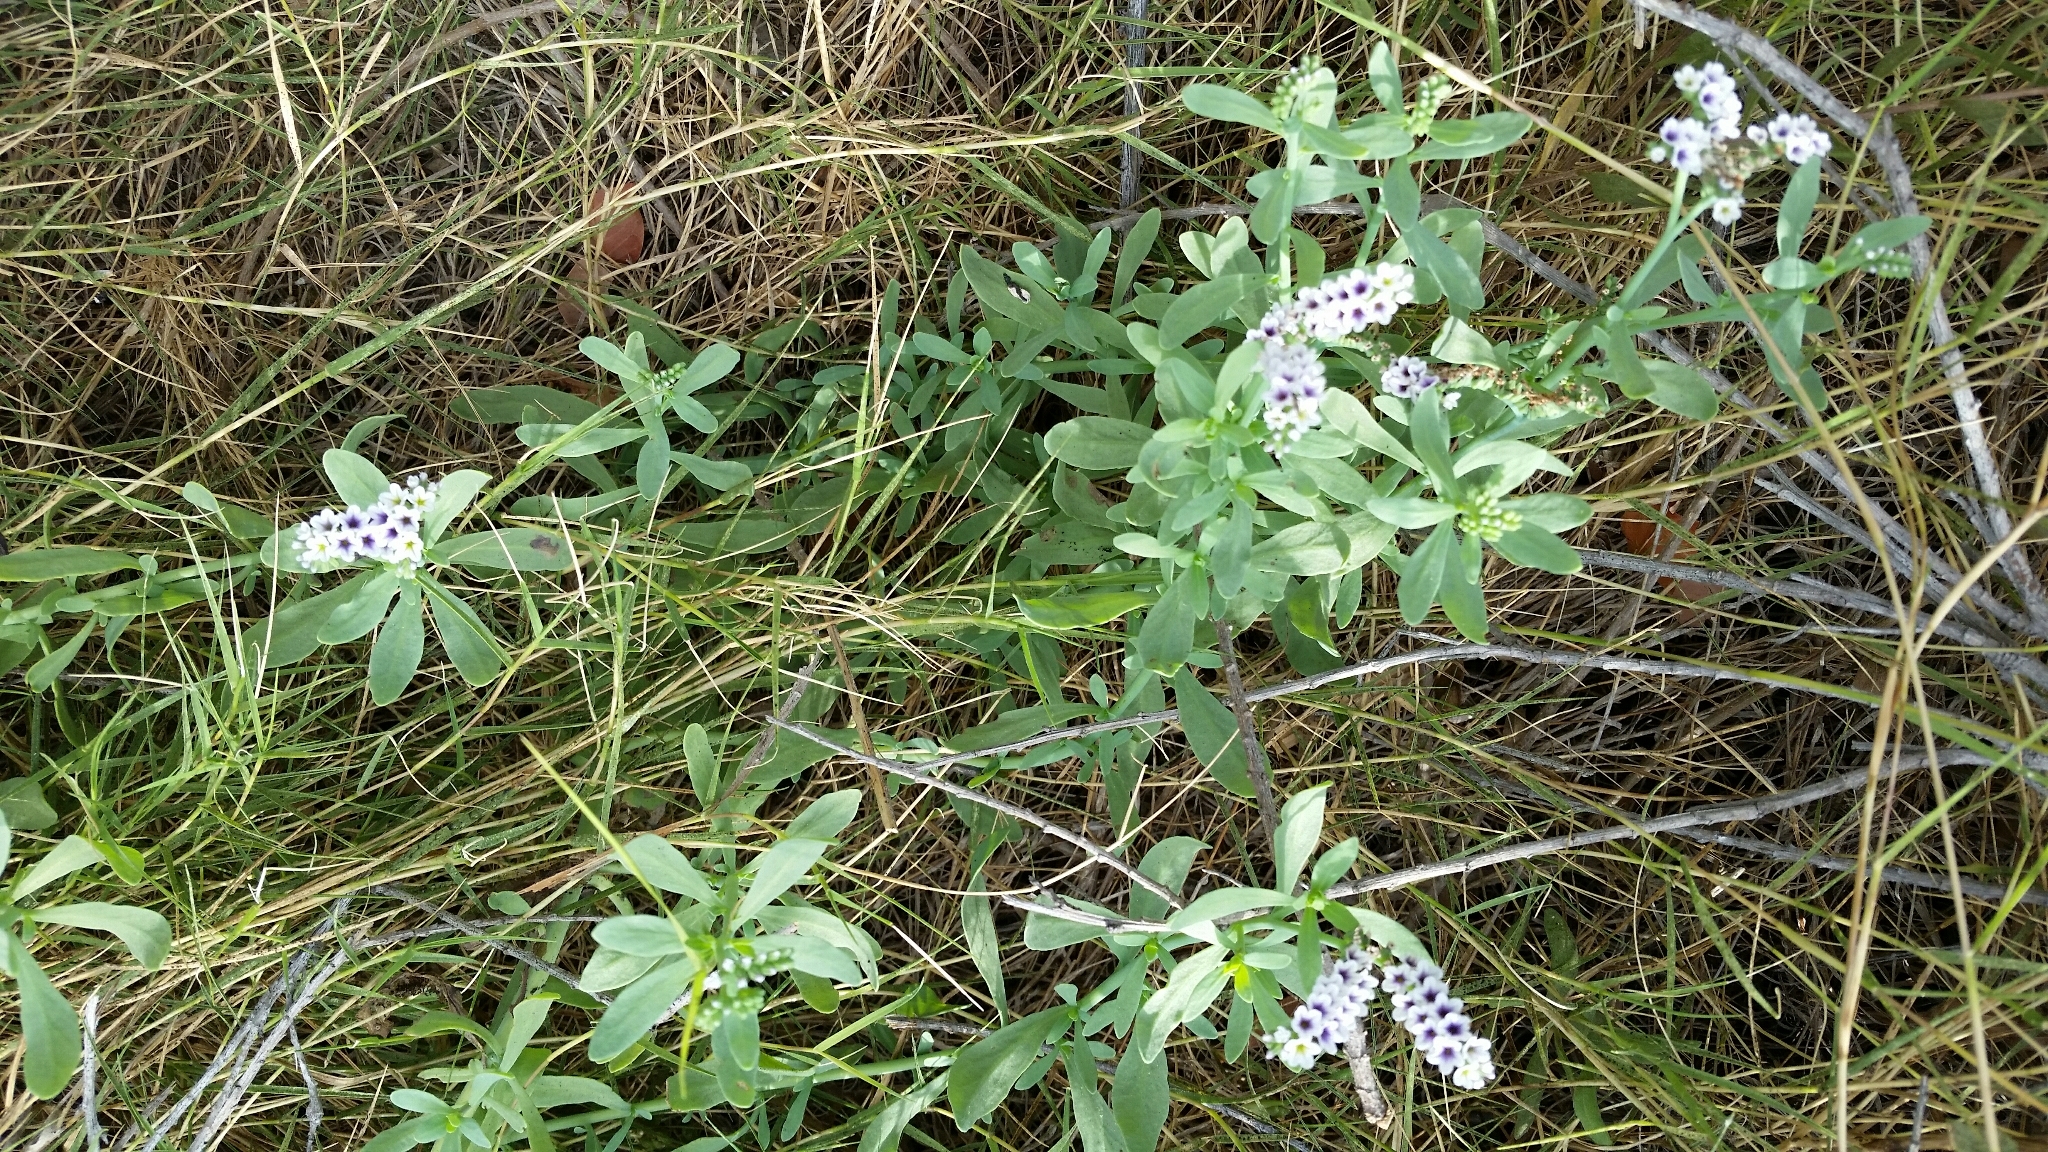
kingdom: Plantae
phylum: Tracheophyta
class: Magnoliopsida
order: Boraginales
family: Heliotropiaceae
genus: Heliotropium
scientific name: Heliotropium curassavicum
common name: Seaside heliotrope
